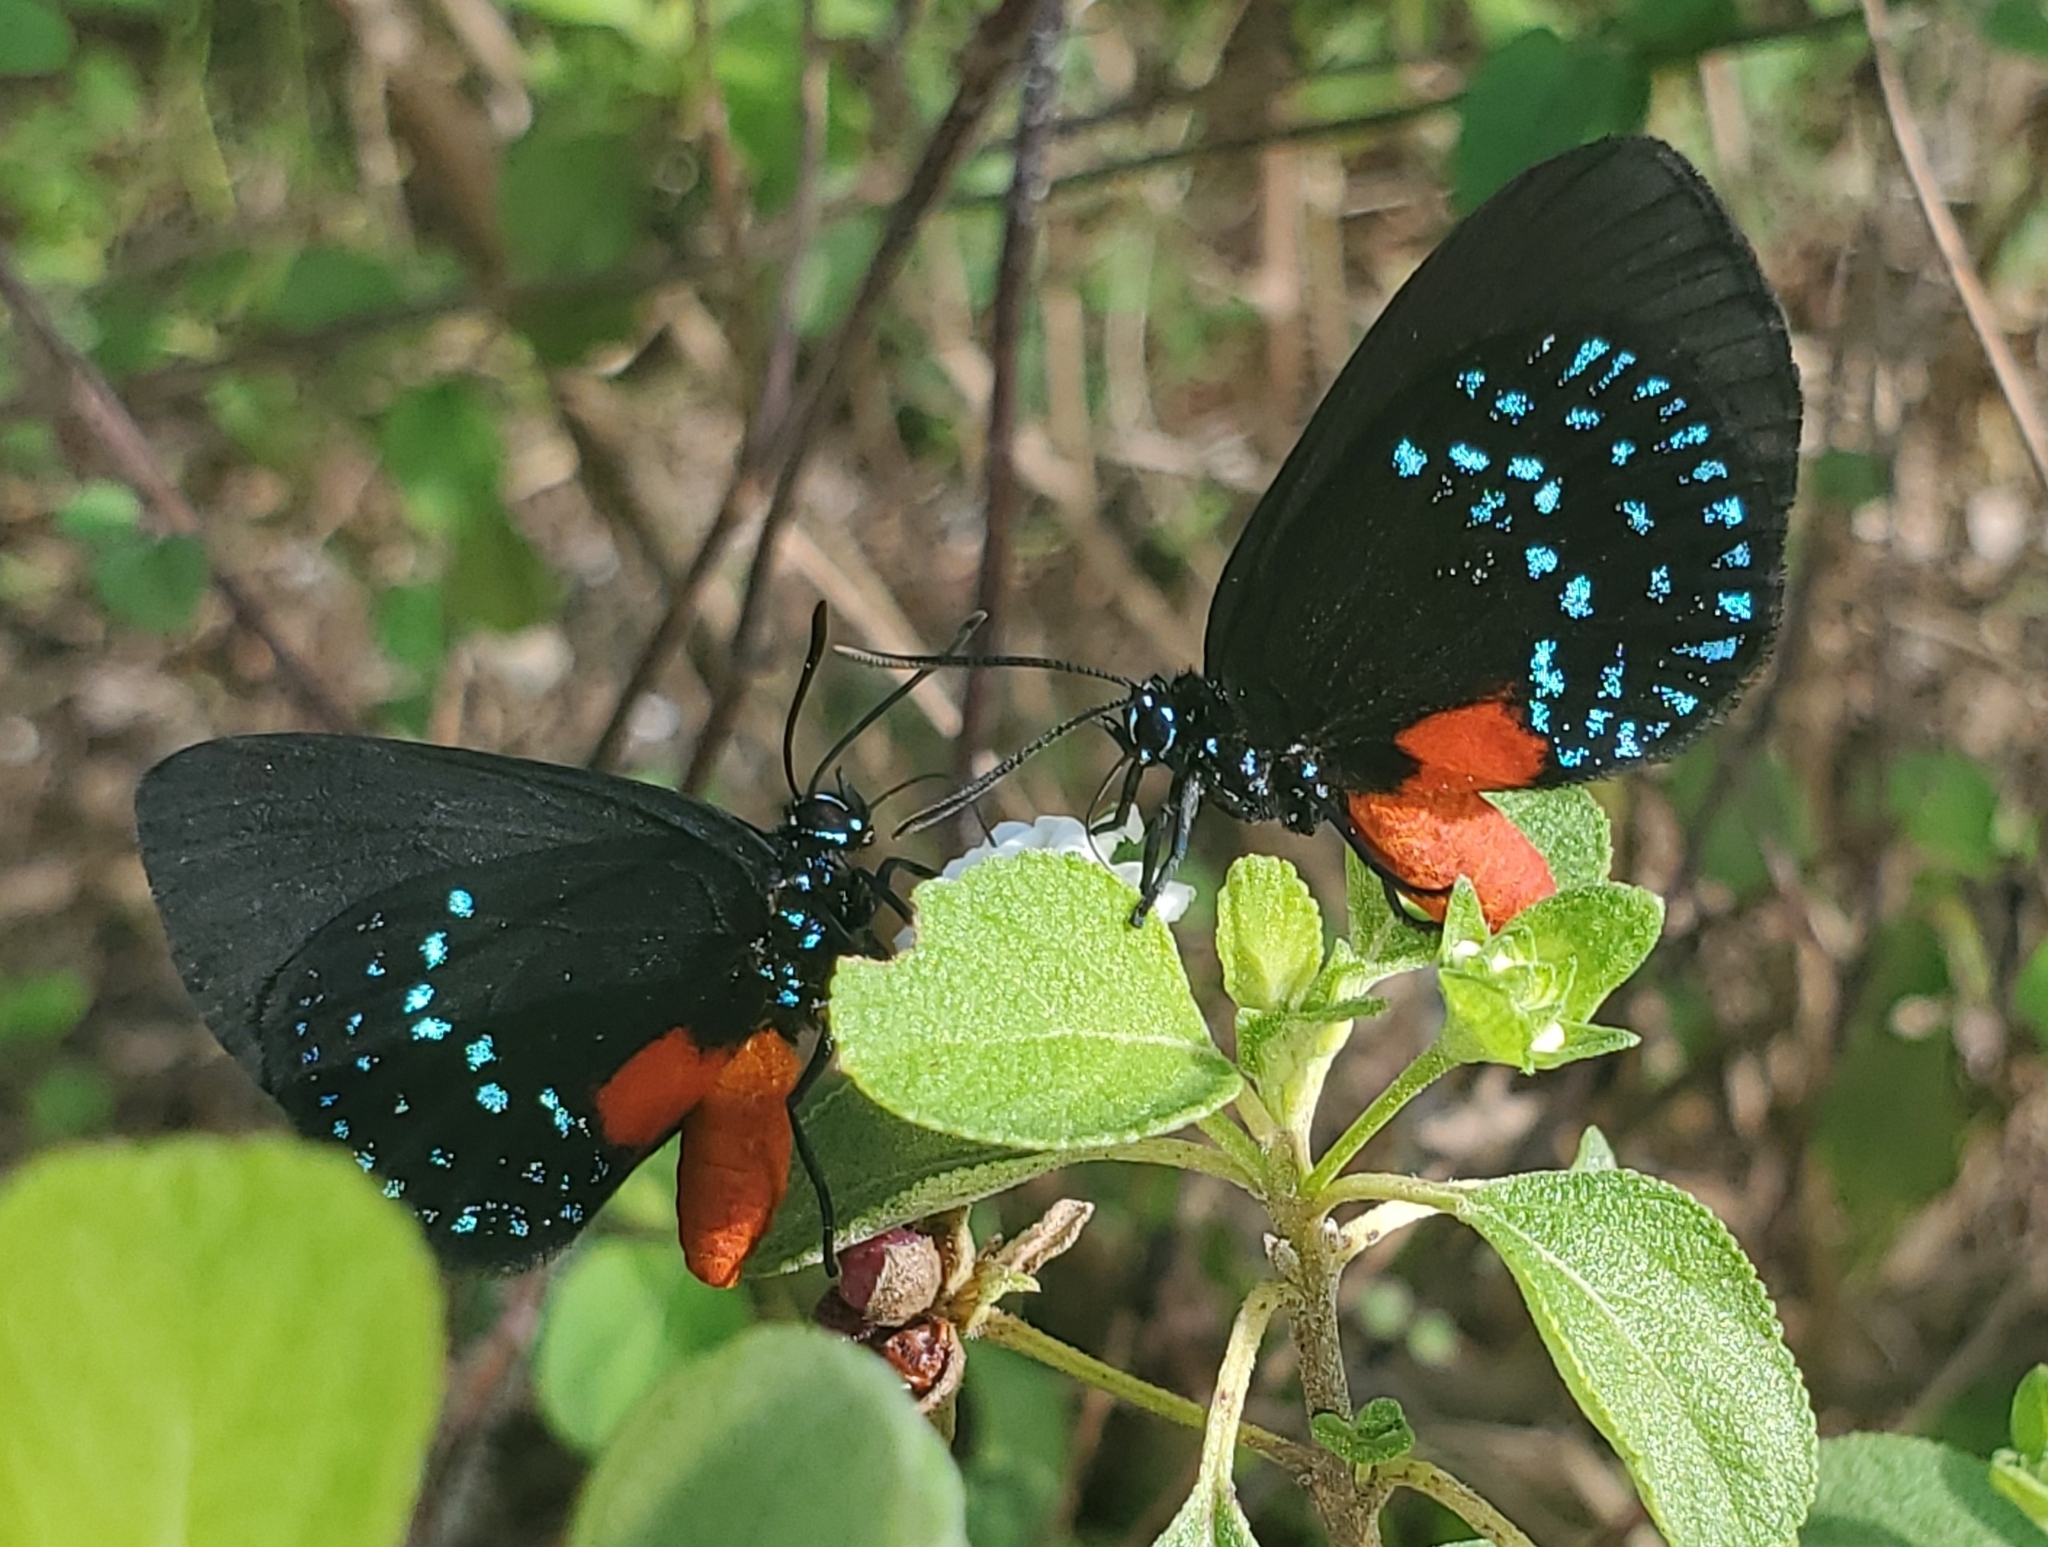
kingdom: Animalia
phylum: Arthropoda
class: Insecta
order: Lepidoptera
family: Lycaenidae
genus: Eumaeus
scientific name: Eumaeus atala
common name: Atala
